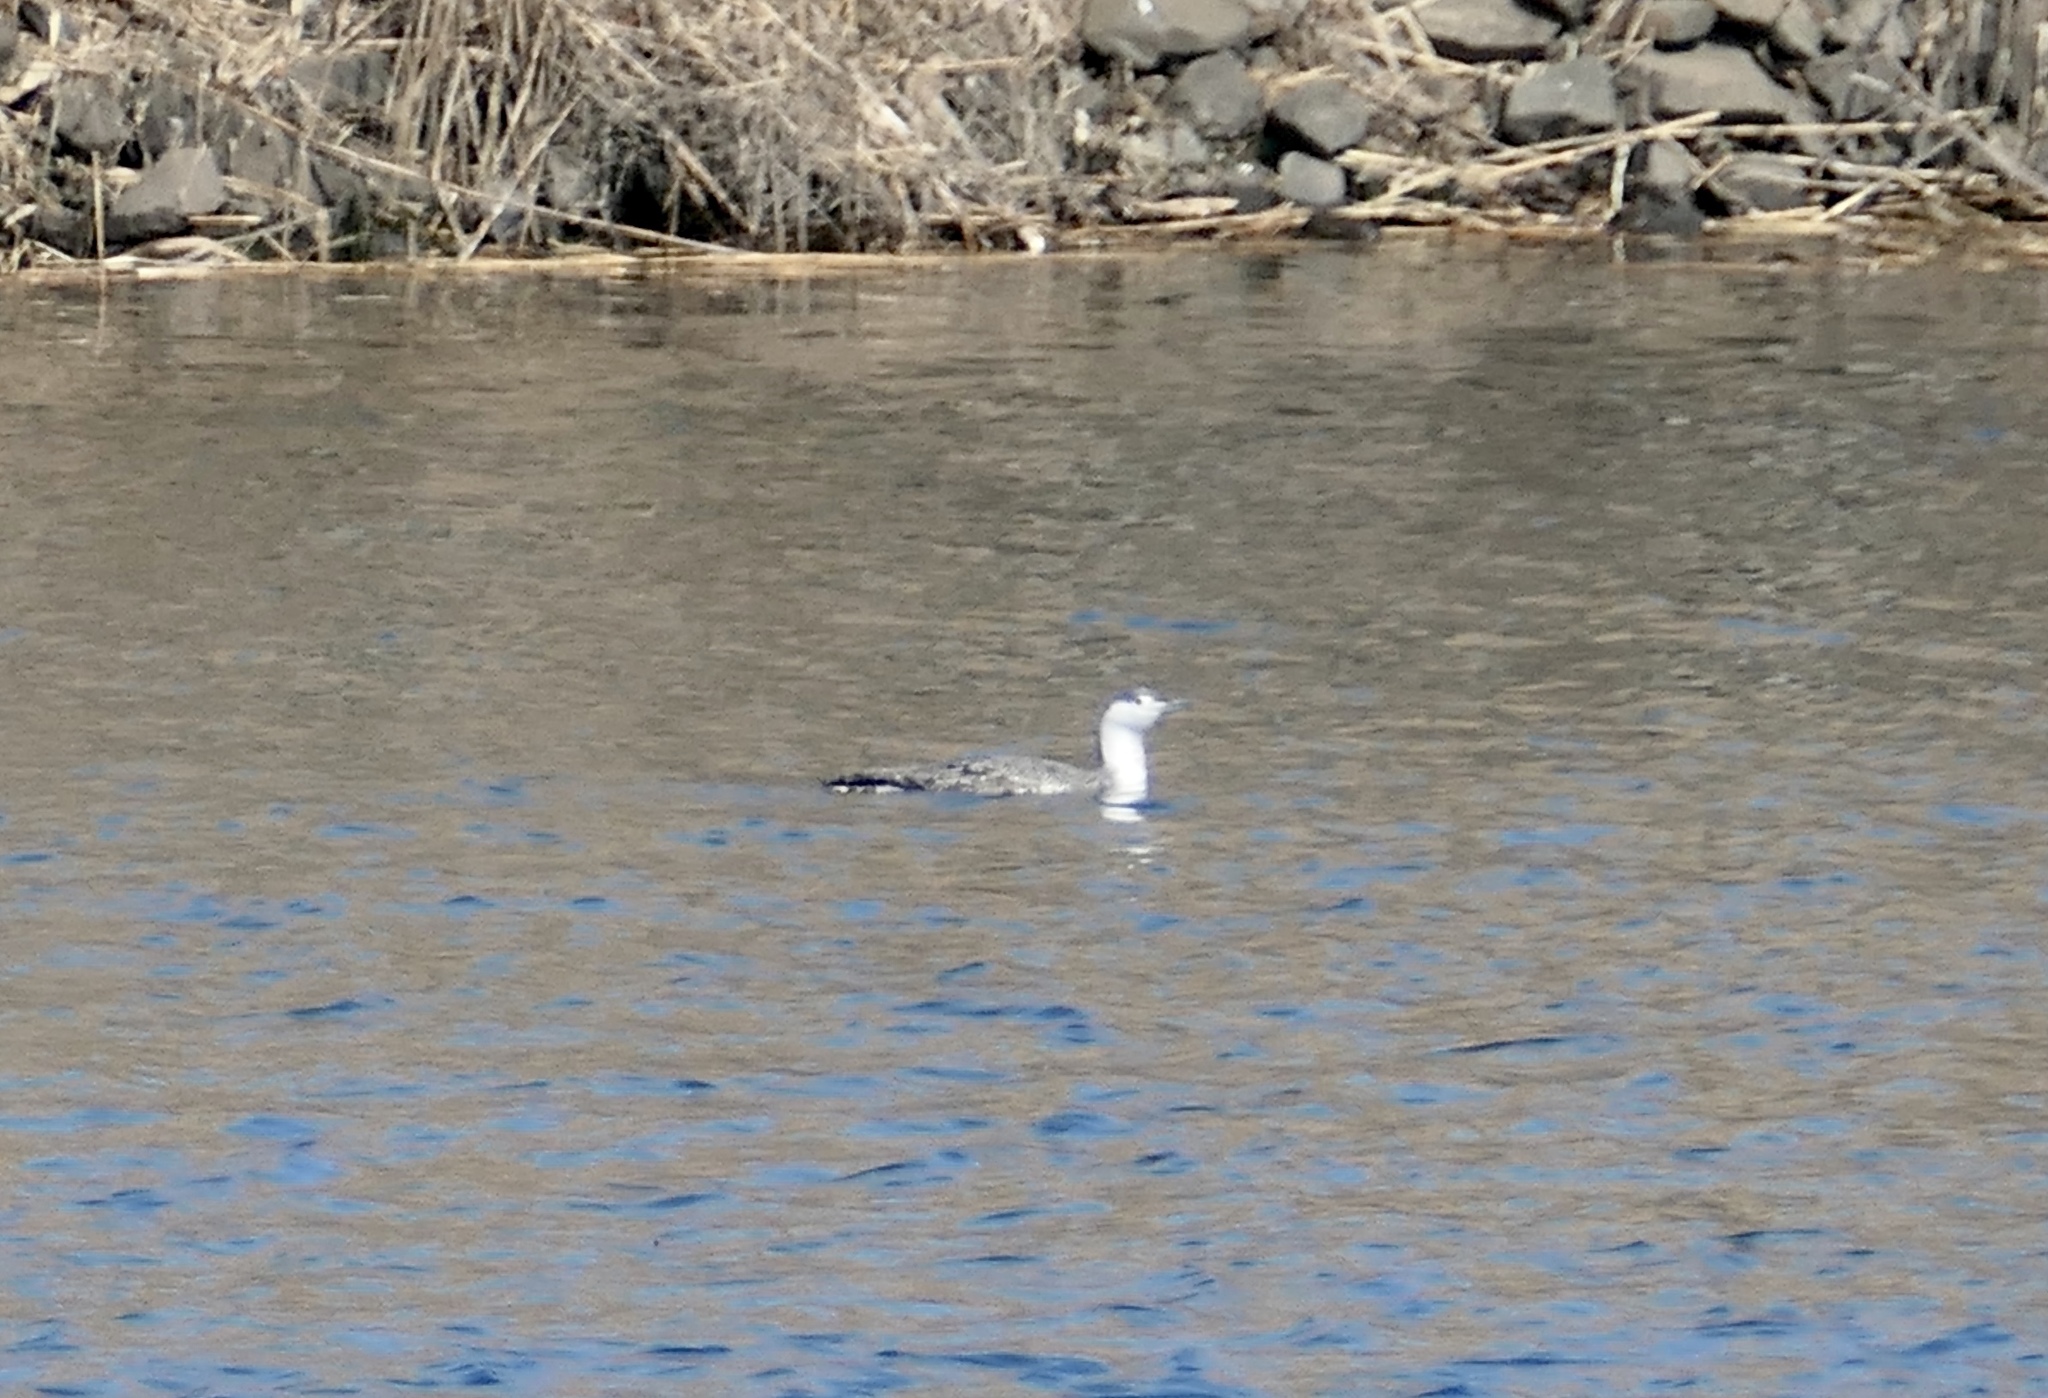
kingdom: Animalia
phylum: Chordata
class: Aves
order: Gaviiformes
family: Gaviidae
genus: Gavia
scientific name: Gavia stellata
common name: Red-throated loon
